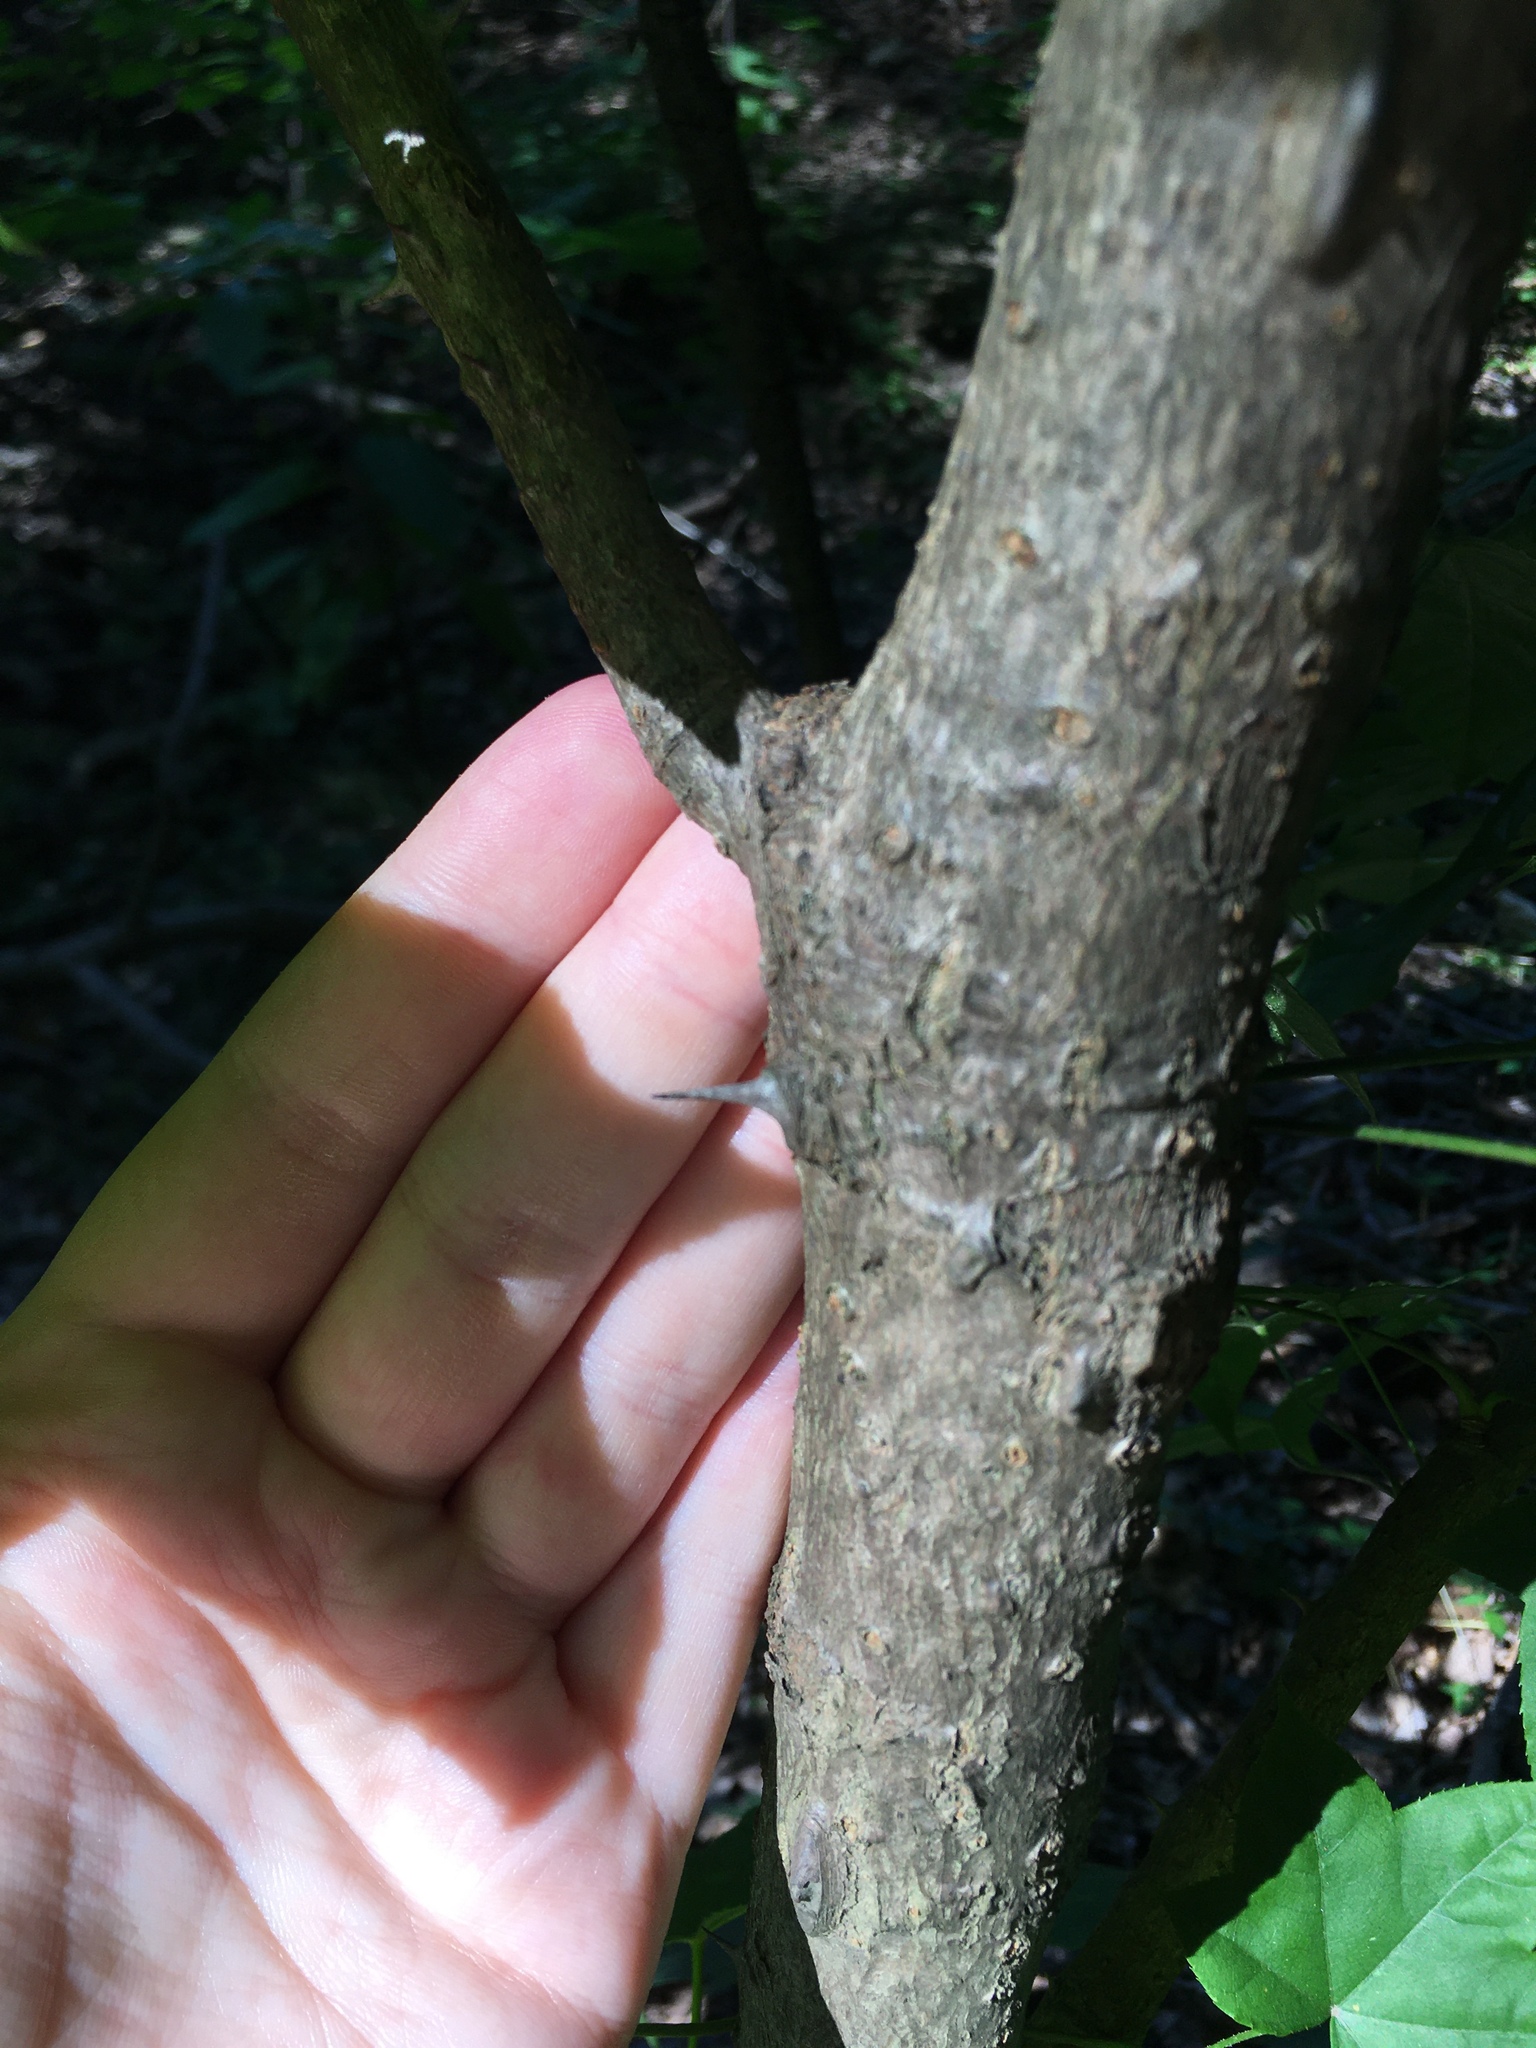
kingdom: Plantae
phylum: Tracheophyta
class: Magnoliopsida
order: Apiales
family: Araliaceae
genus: Kalopanax
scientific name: Kalopanax septemlobus
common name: Castor aralia
